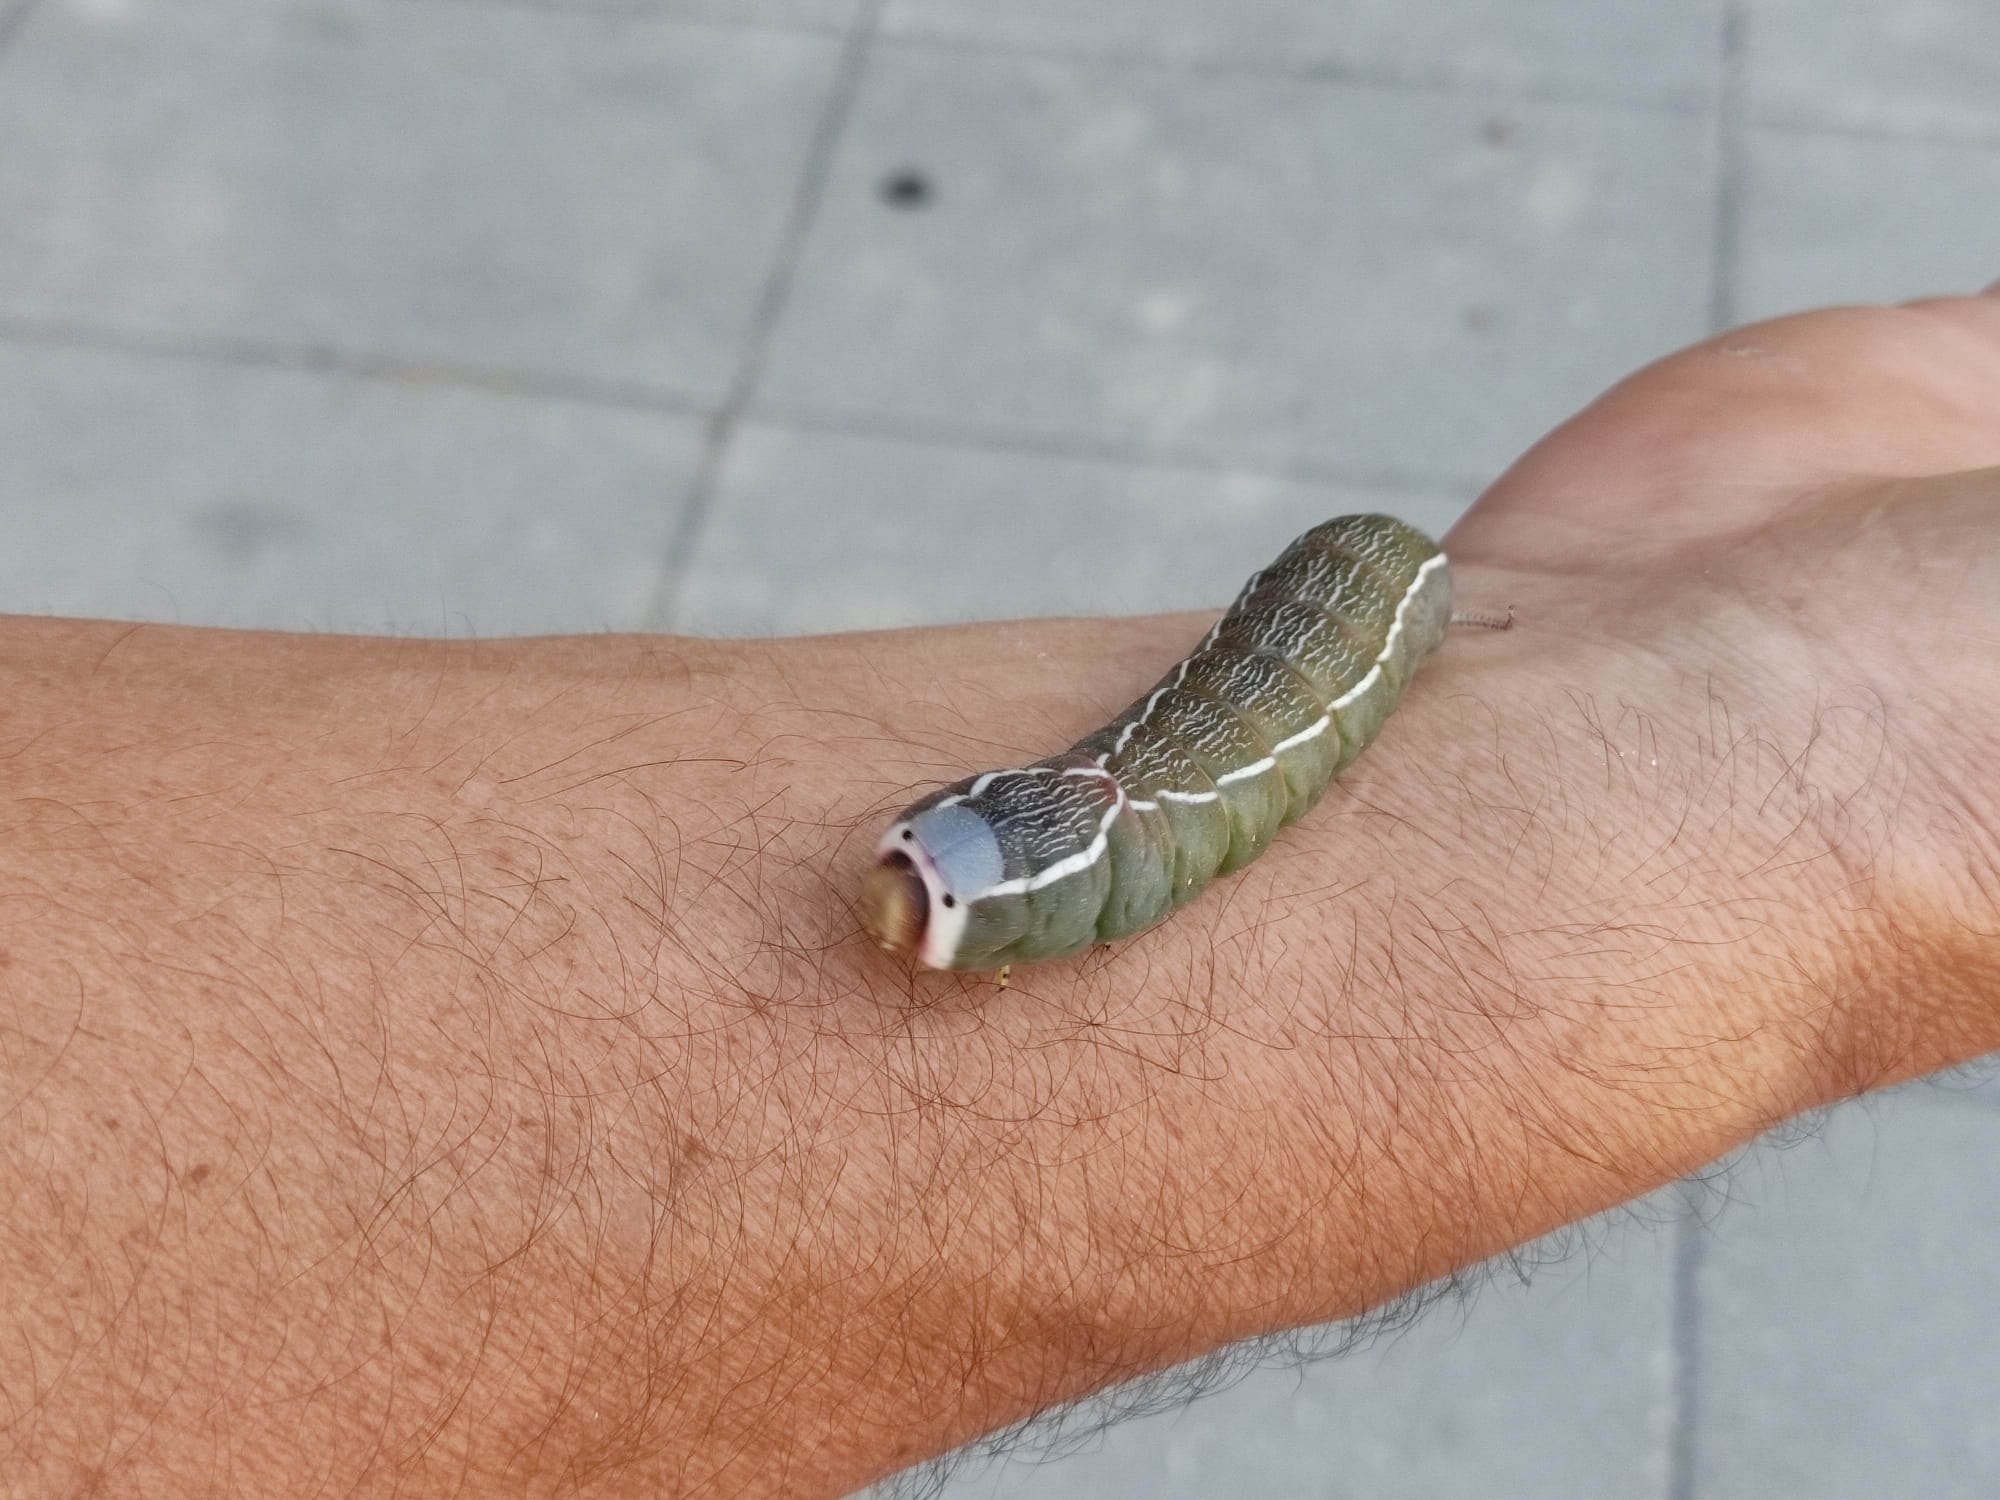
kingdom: Animalia
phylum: Arthropoda
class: Insecta
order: Lepidoptera
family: Notodontidae
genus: Cerura
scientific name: Cerura iberica
